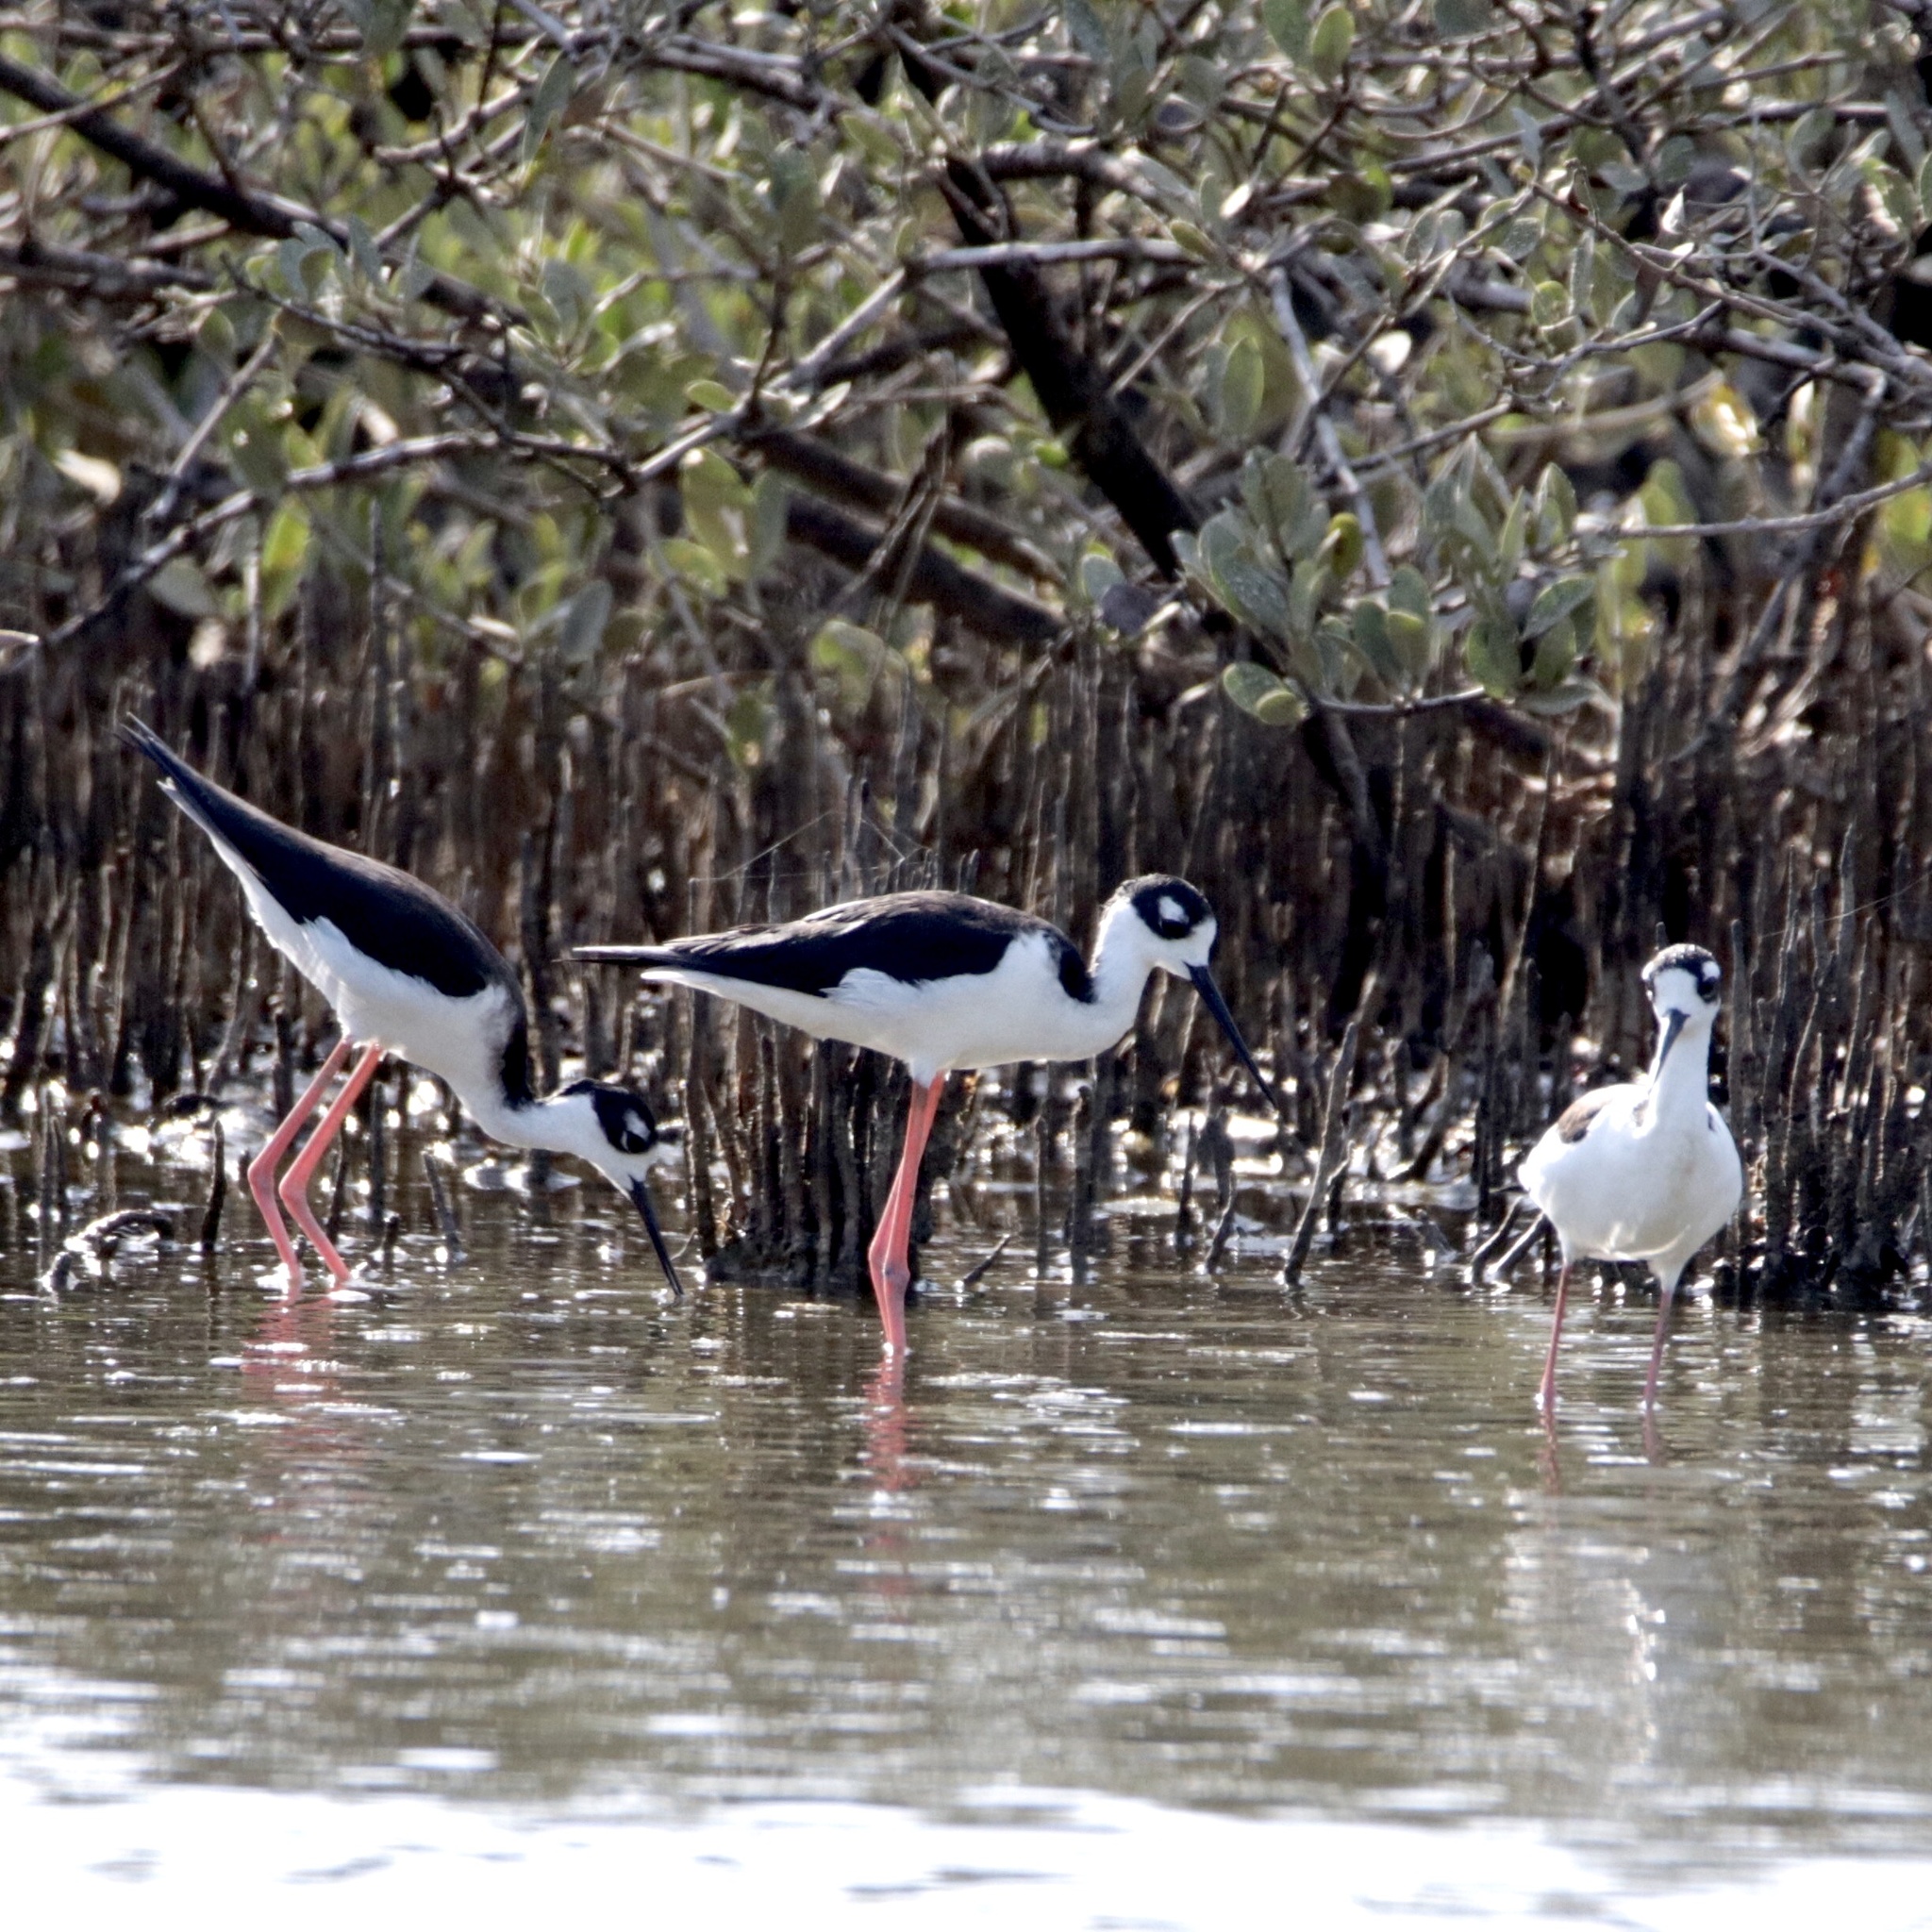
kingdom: Animalia
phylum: Chordata
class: Aves
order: Charadriiformes
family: Recurvirostridae
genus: Himantopus
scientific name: Himantopus mexicanus
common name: Black-necked stilt
